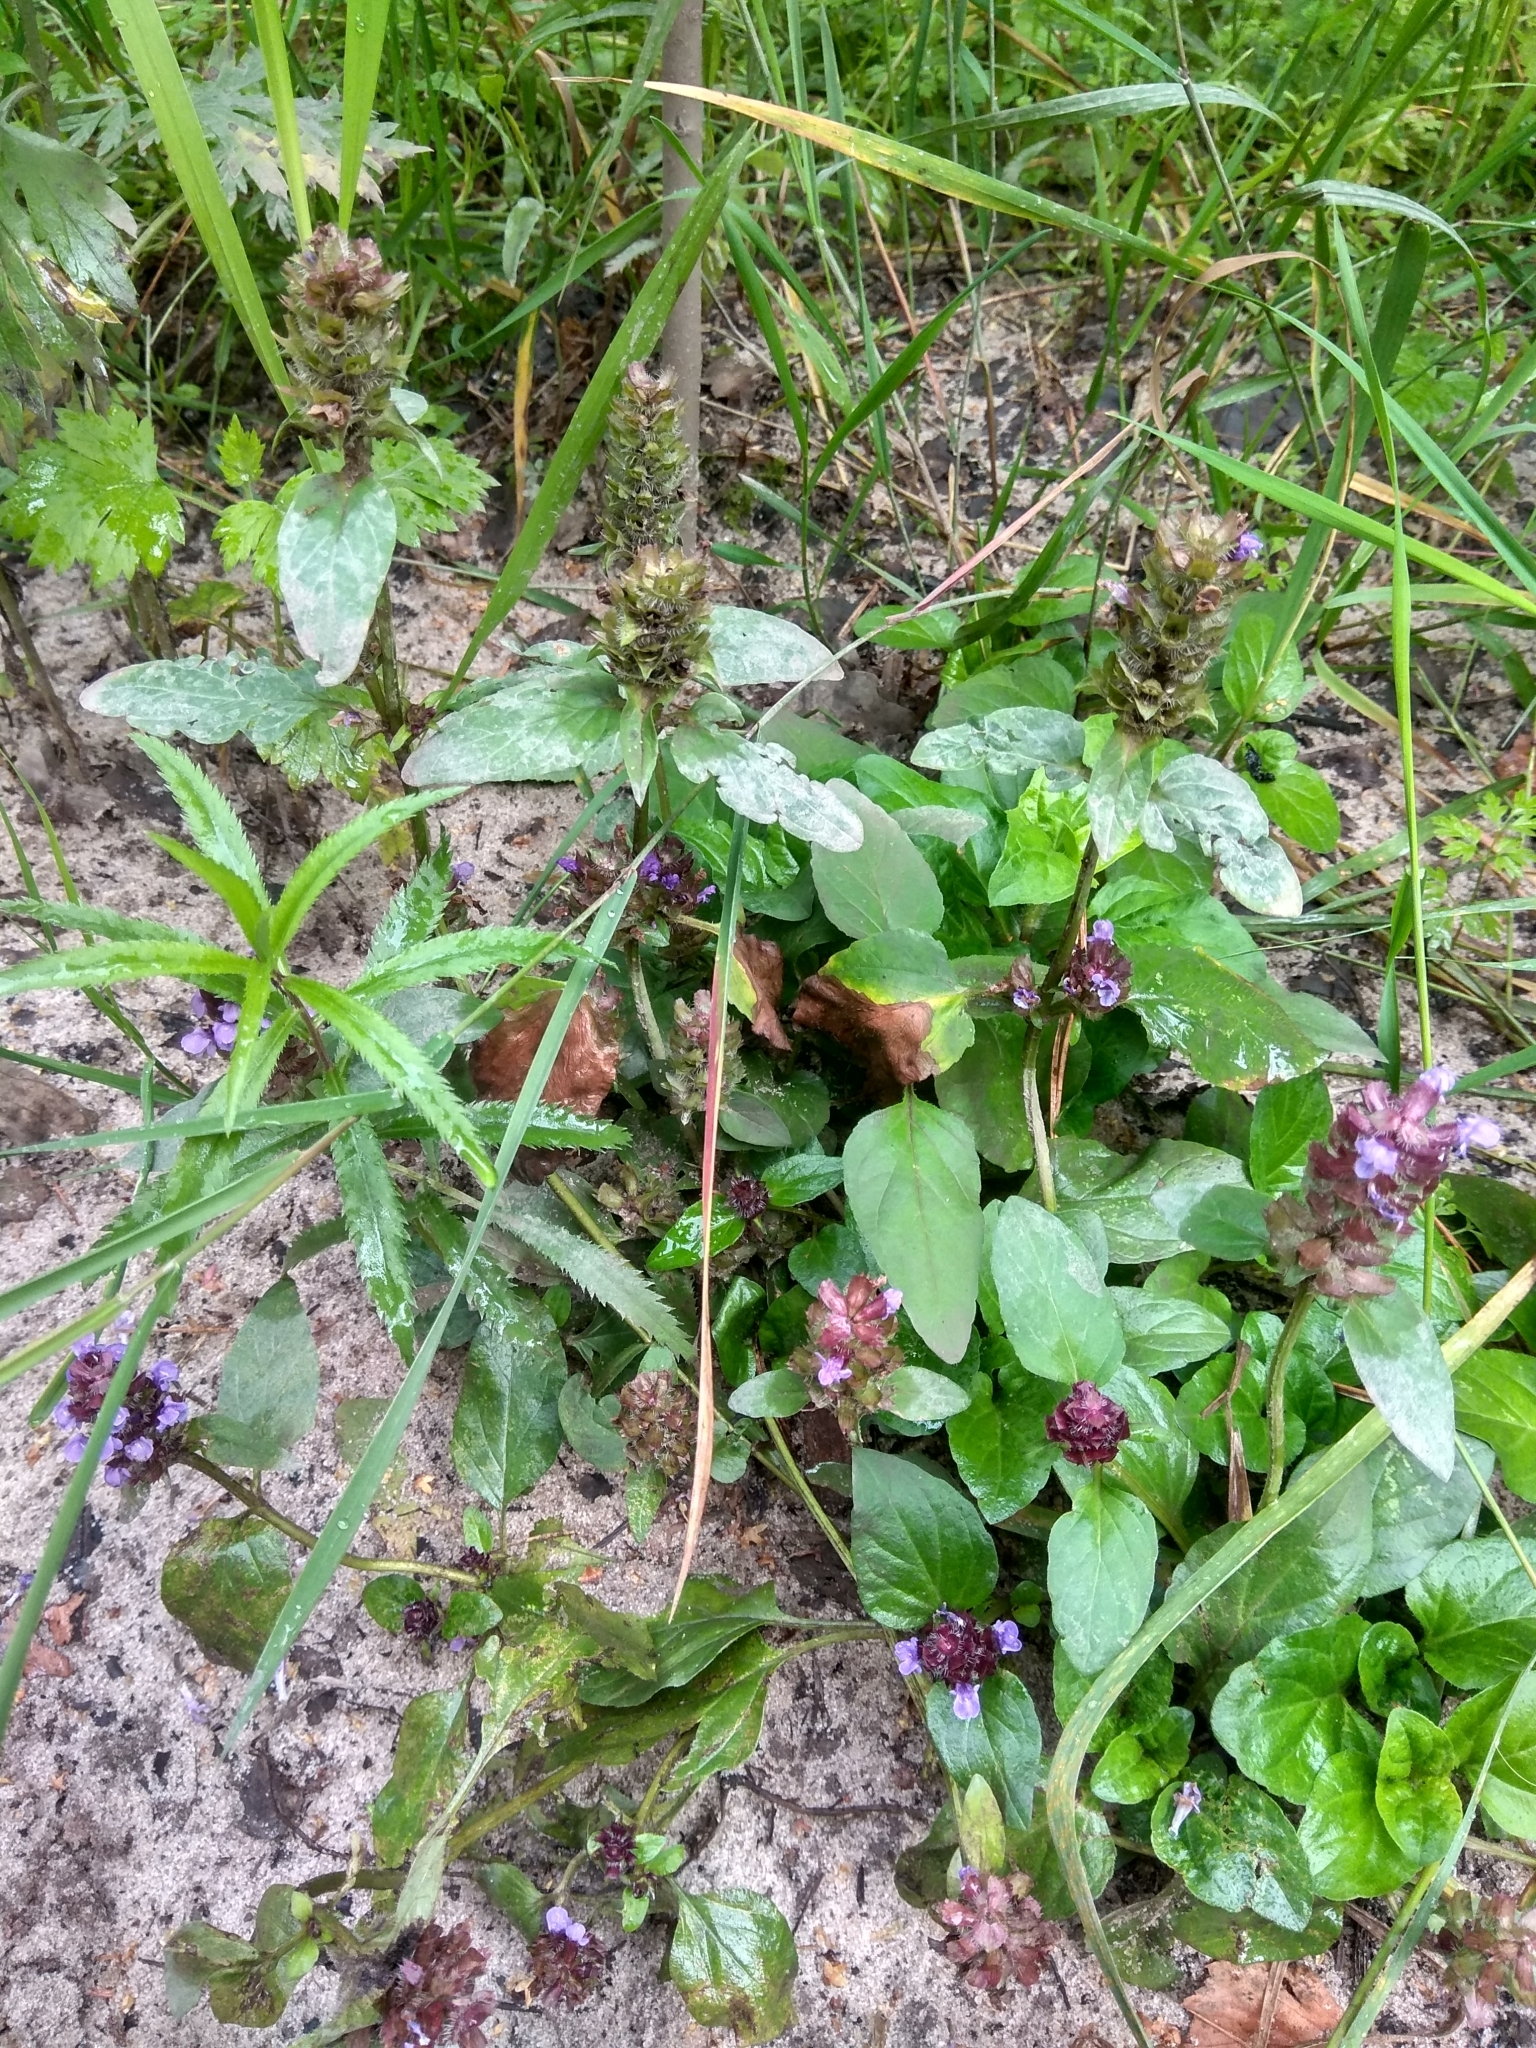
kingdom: Plantae
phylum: Tracheophyta
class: Magnoliopsida
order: Lamiales
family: Lamiaceae
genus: Prunella
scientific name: Prunella vulgaris
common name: Heal-all
